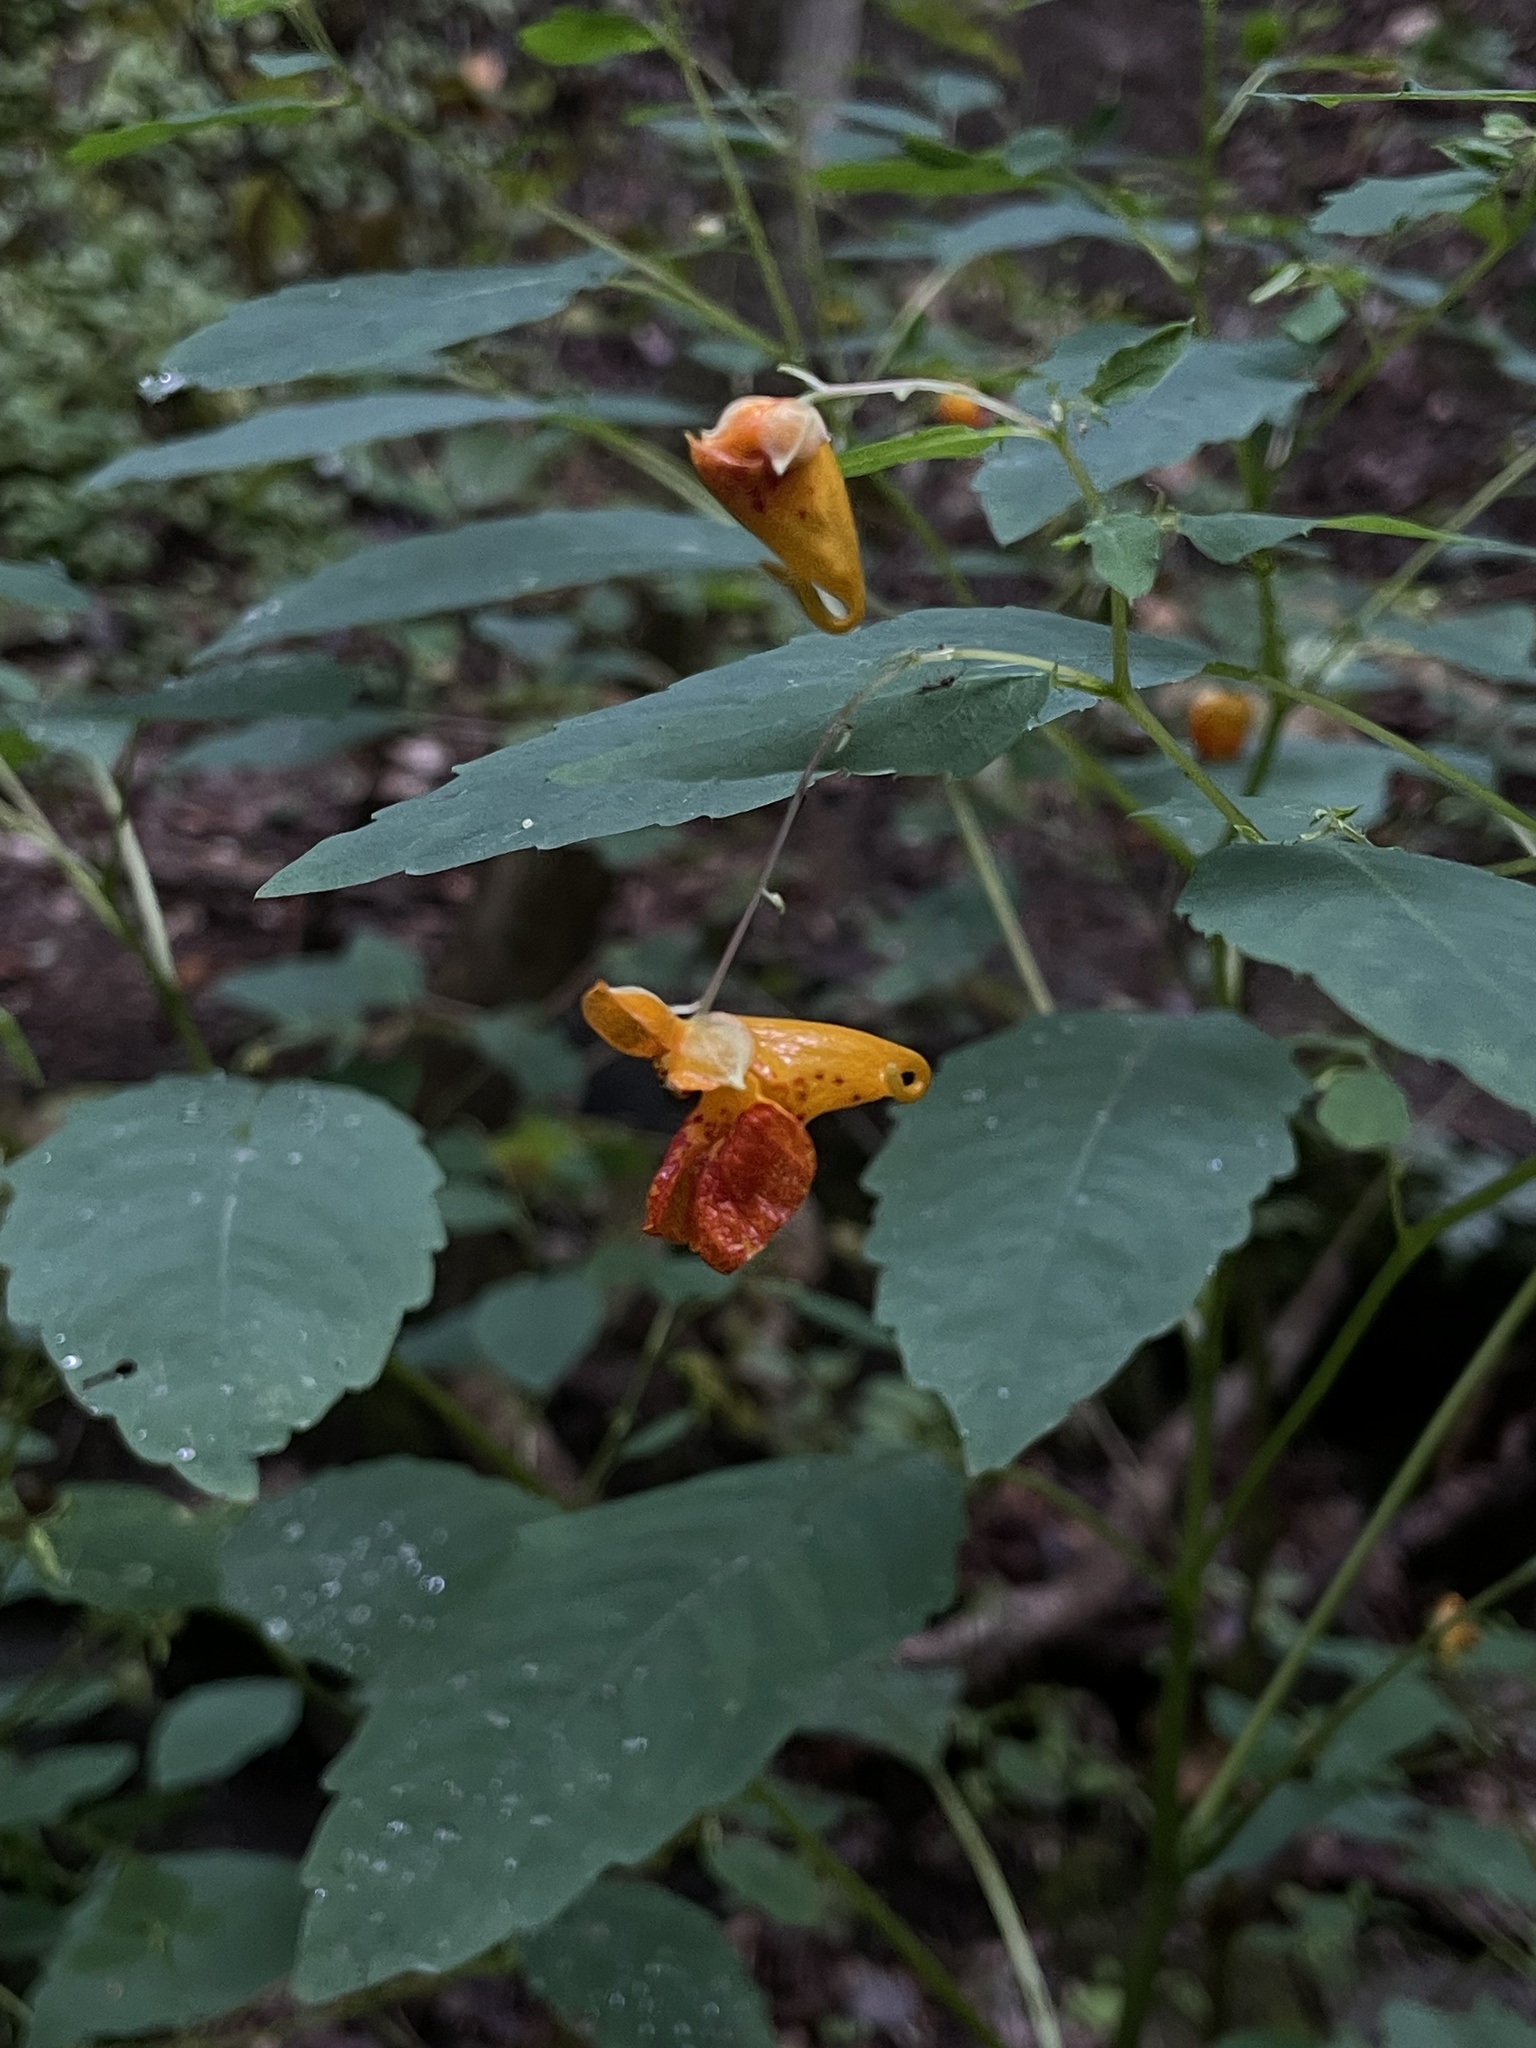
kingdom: Plantae
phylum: Tracheophyta
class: Magnoliopsida
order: Ericales
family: Balsaminaceae
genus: Impatiens
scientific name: Impatiens capensis
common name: Orange balsam
